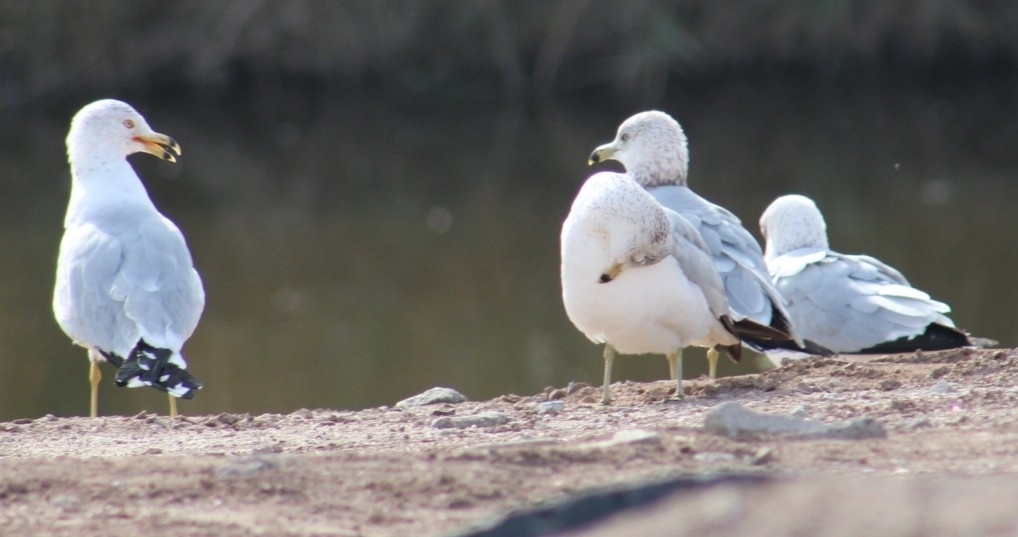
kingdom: Animalia
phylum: Chordata
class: Aves
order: Charadriiformes
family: Laridae
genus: Larus
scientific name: Larus delawarensis
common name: Ring-billed gull
